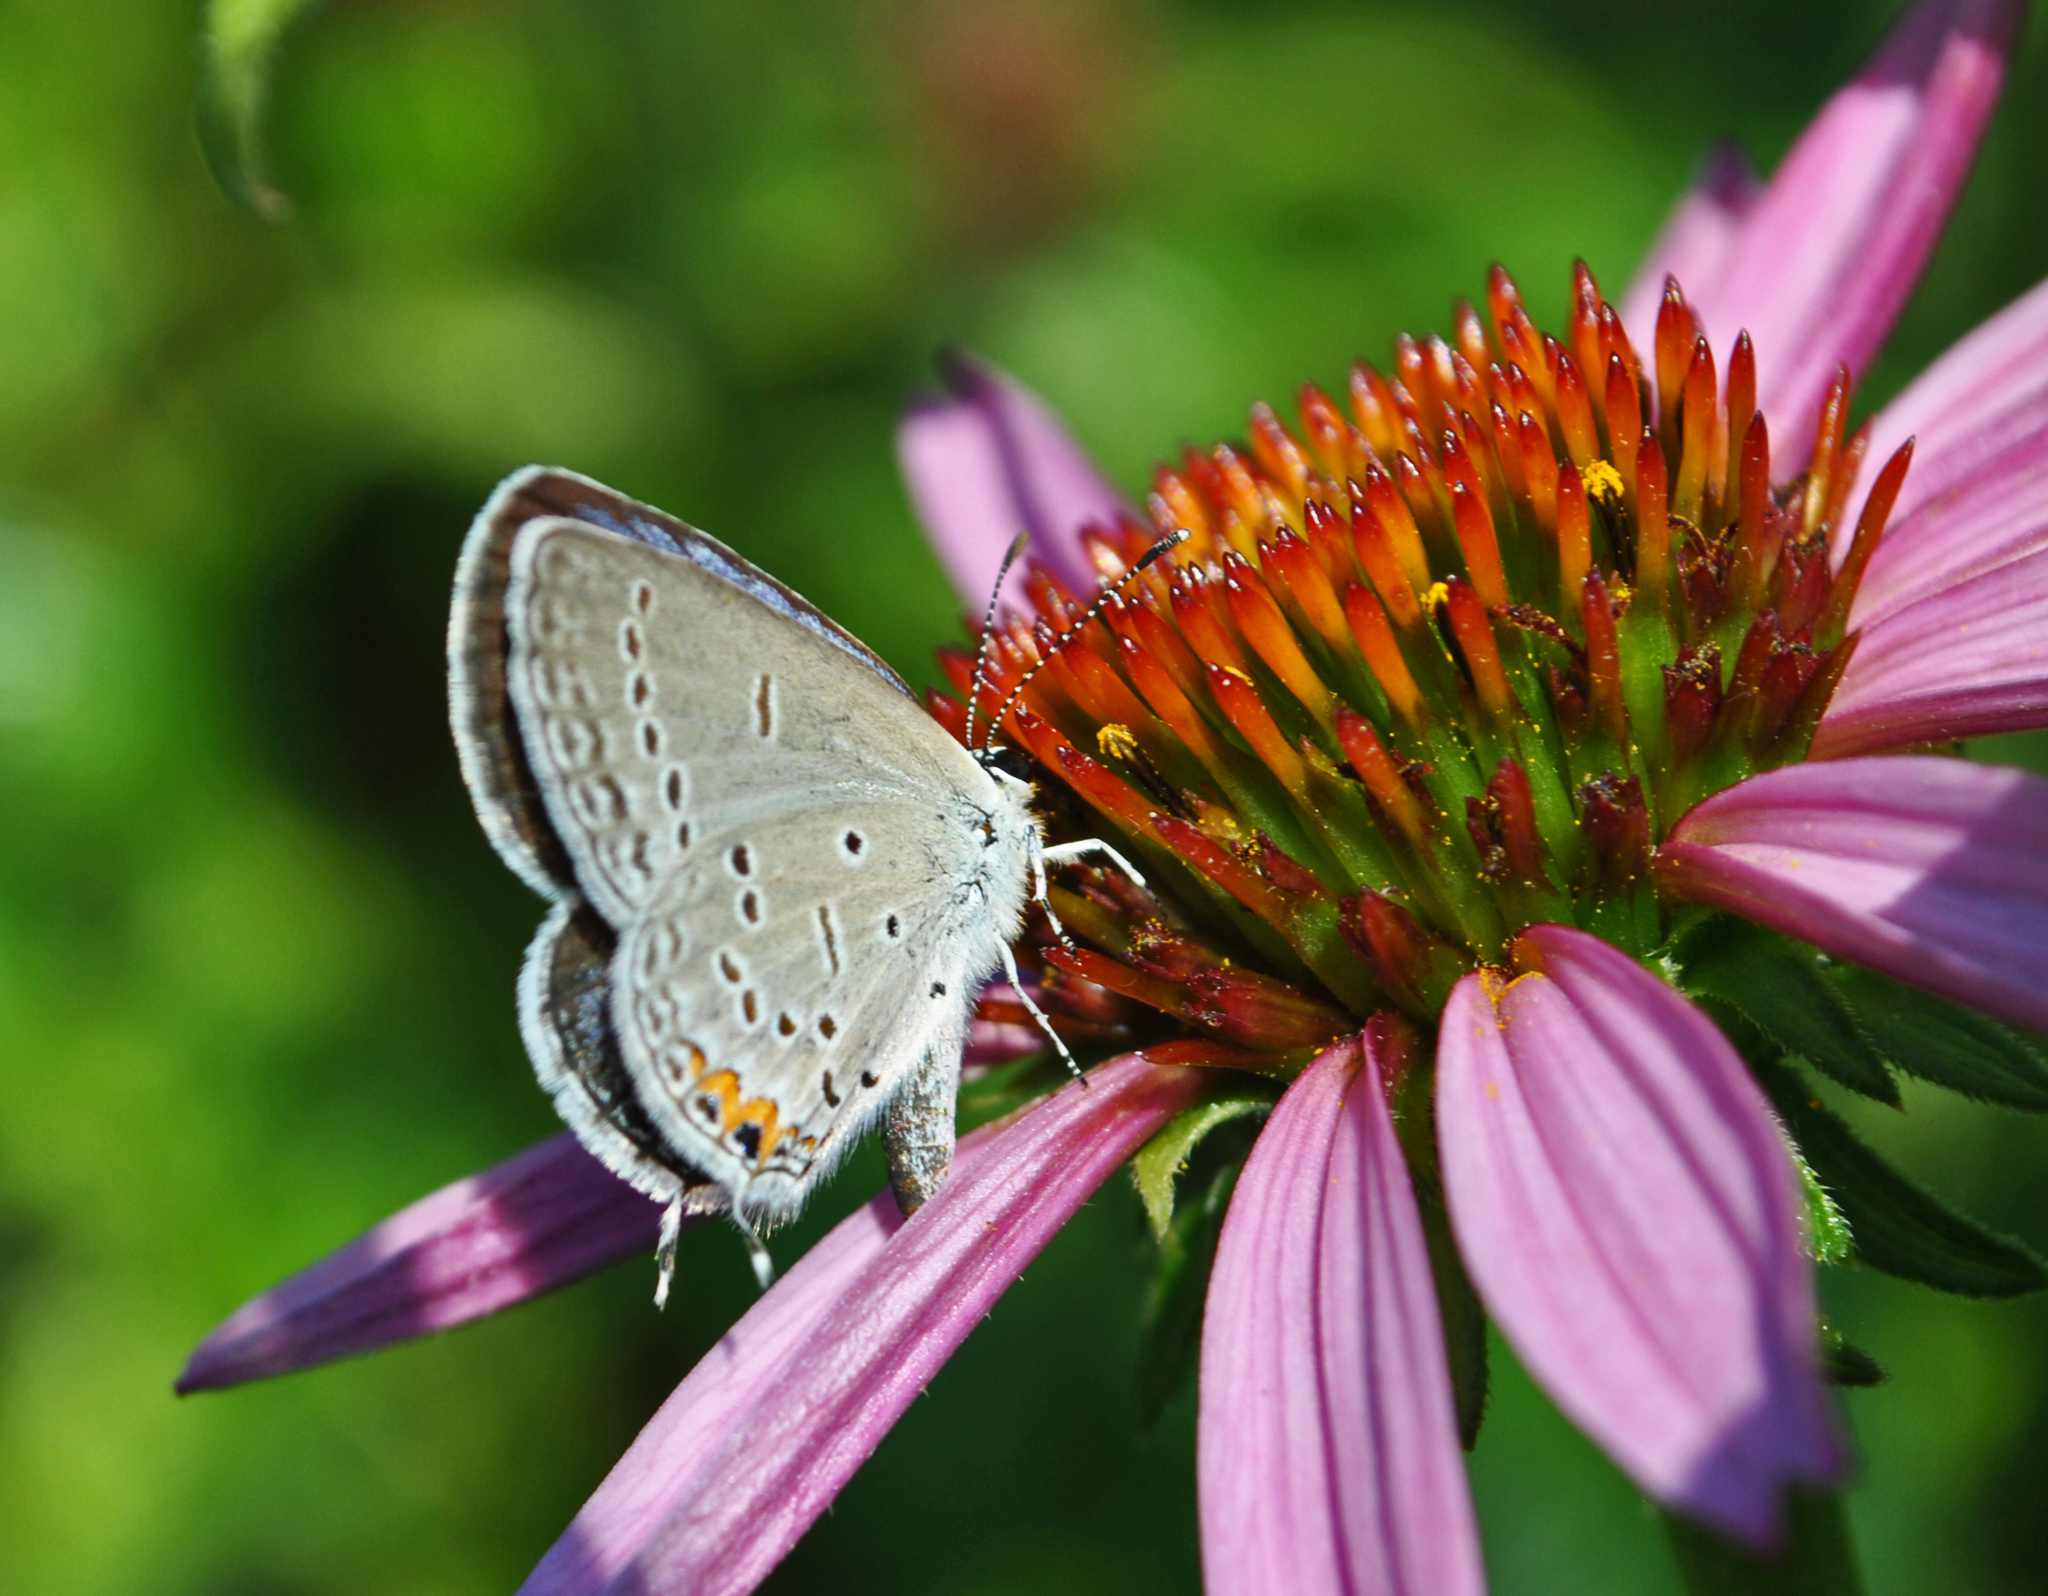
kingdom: Animalia
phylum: Arthropoda
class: Insecta
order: Lepidoptera
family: Lycaenidae
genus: Elkalyce
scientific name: Elkalyce comyntas
